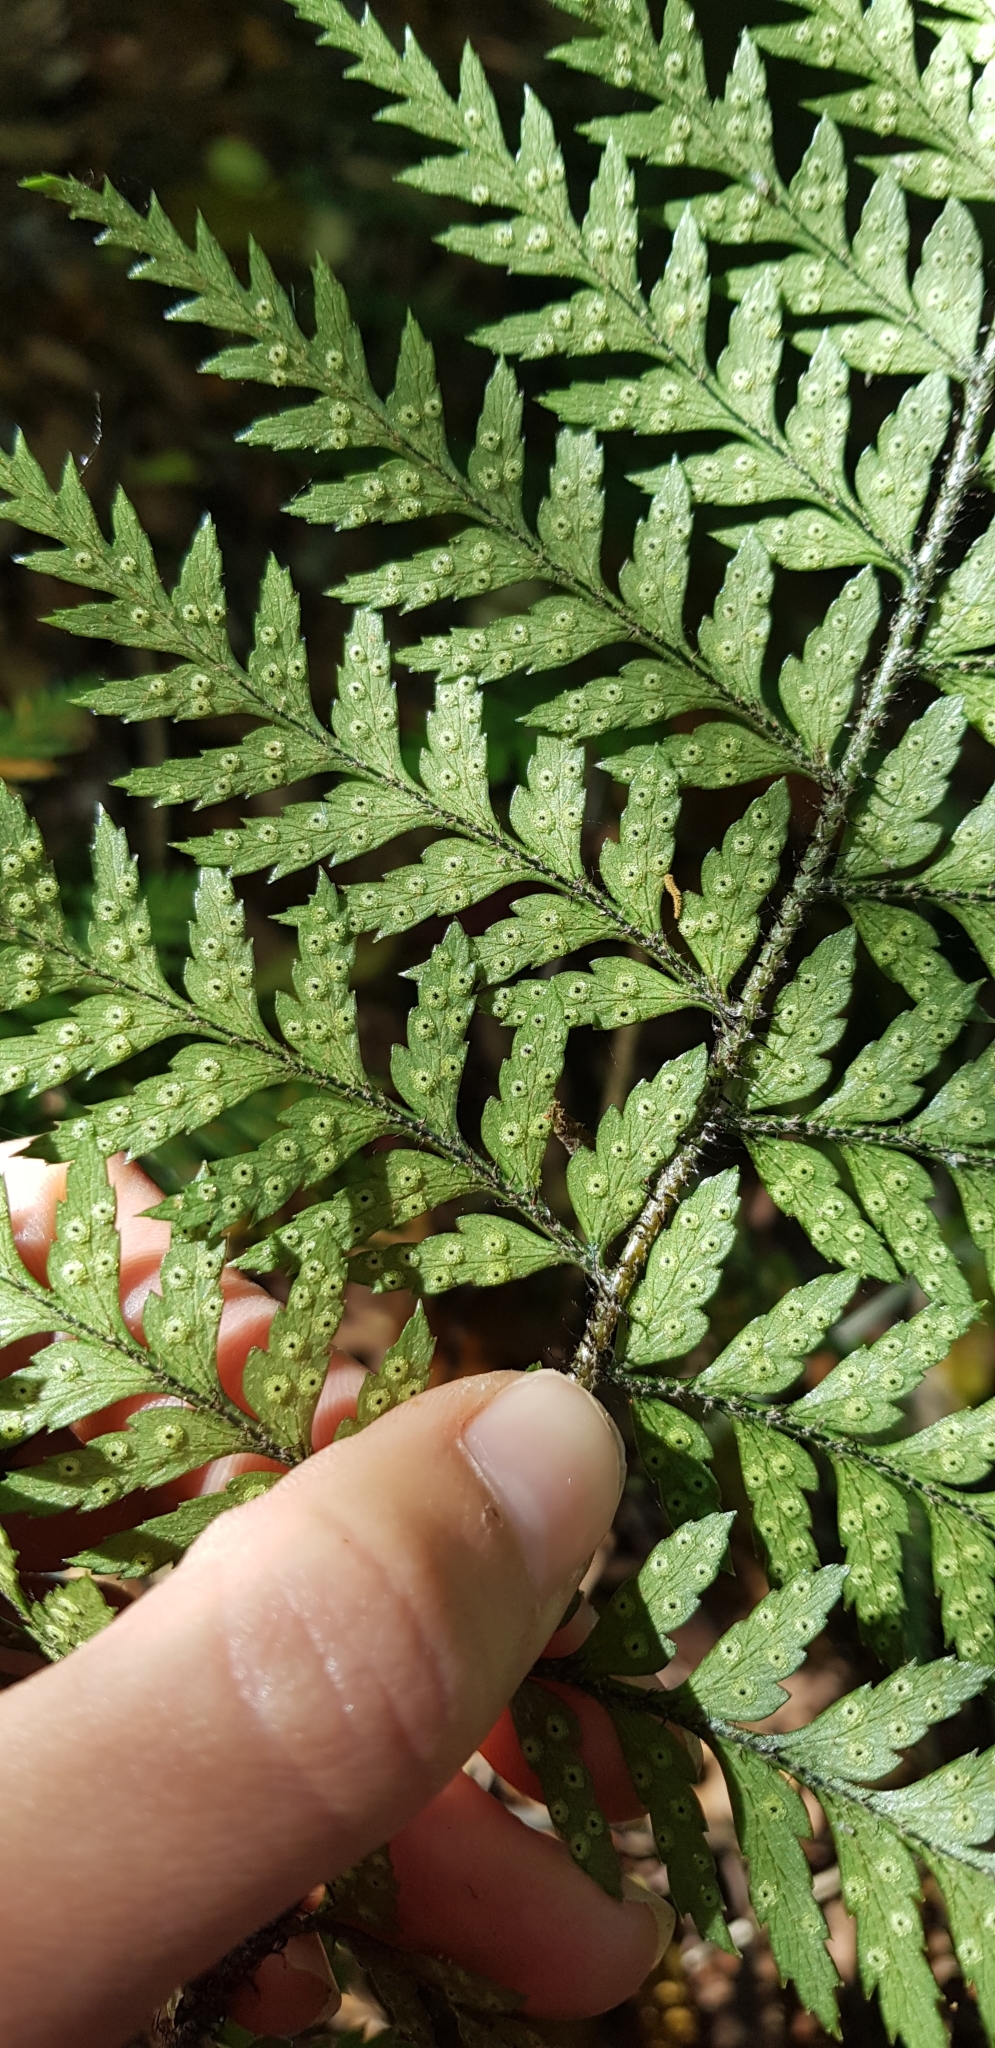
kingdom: Plantae
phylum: Tracheophyta
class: Polypodiopsida
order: Polypodiales
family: Dryopteridaceae
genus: Polystichum
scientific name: Polystichum neozelandicum
